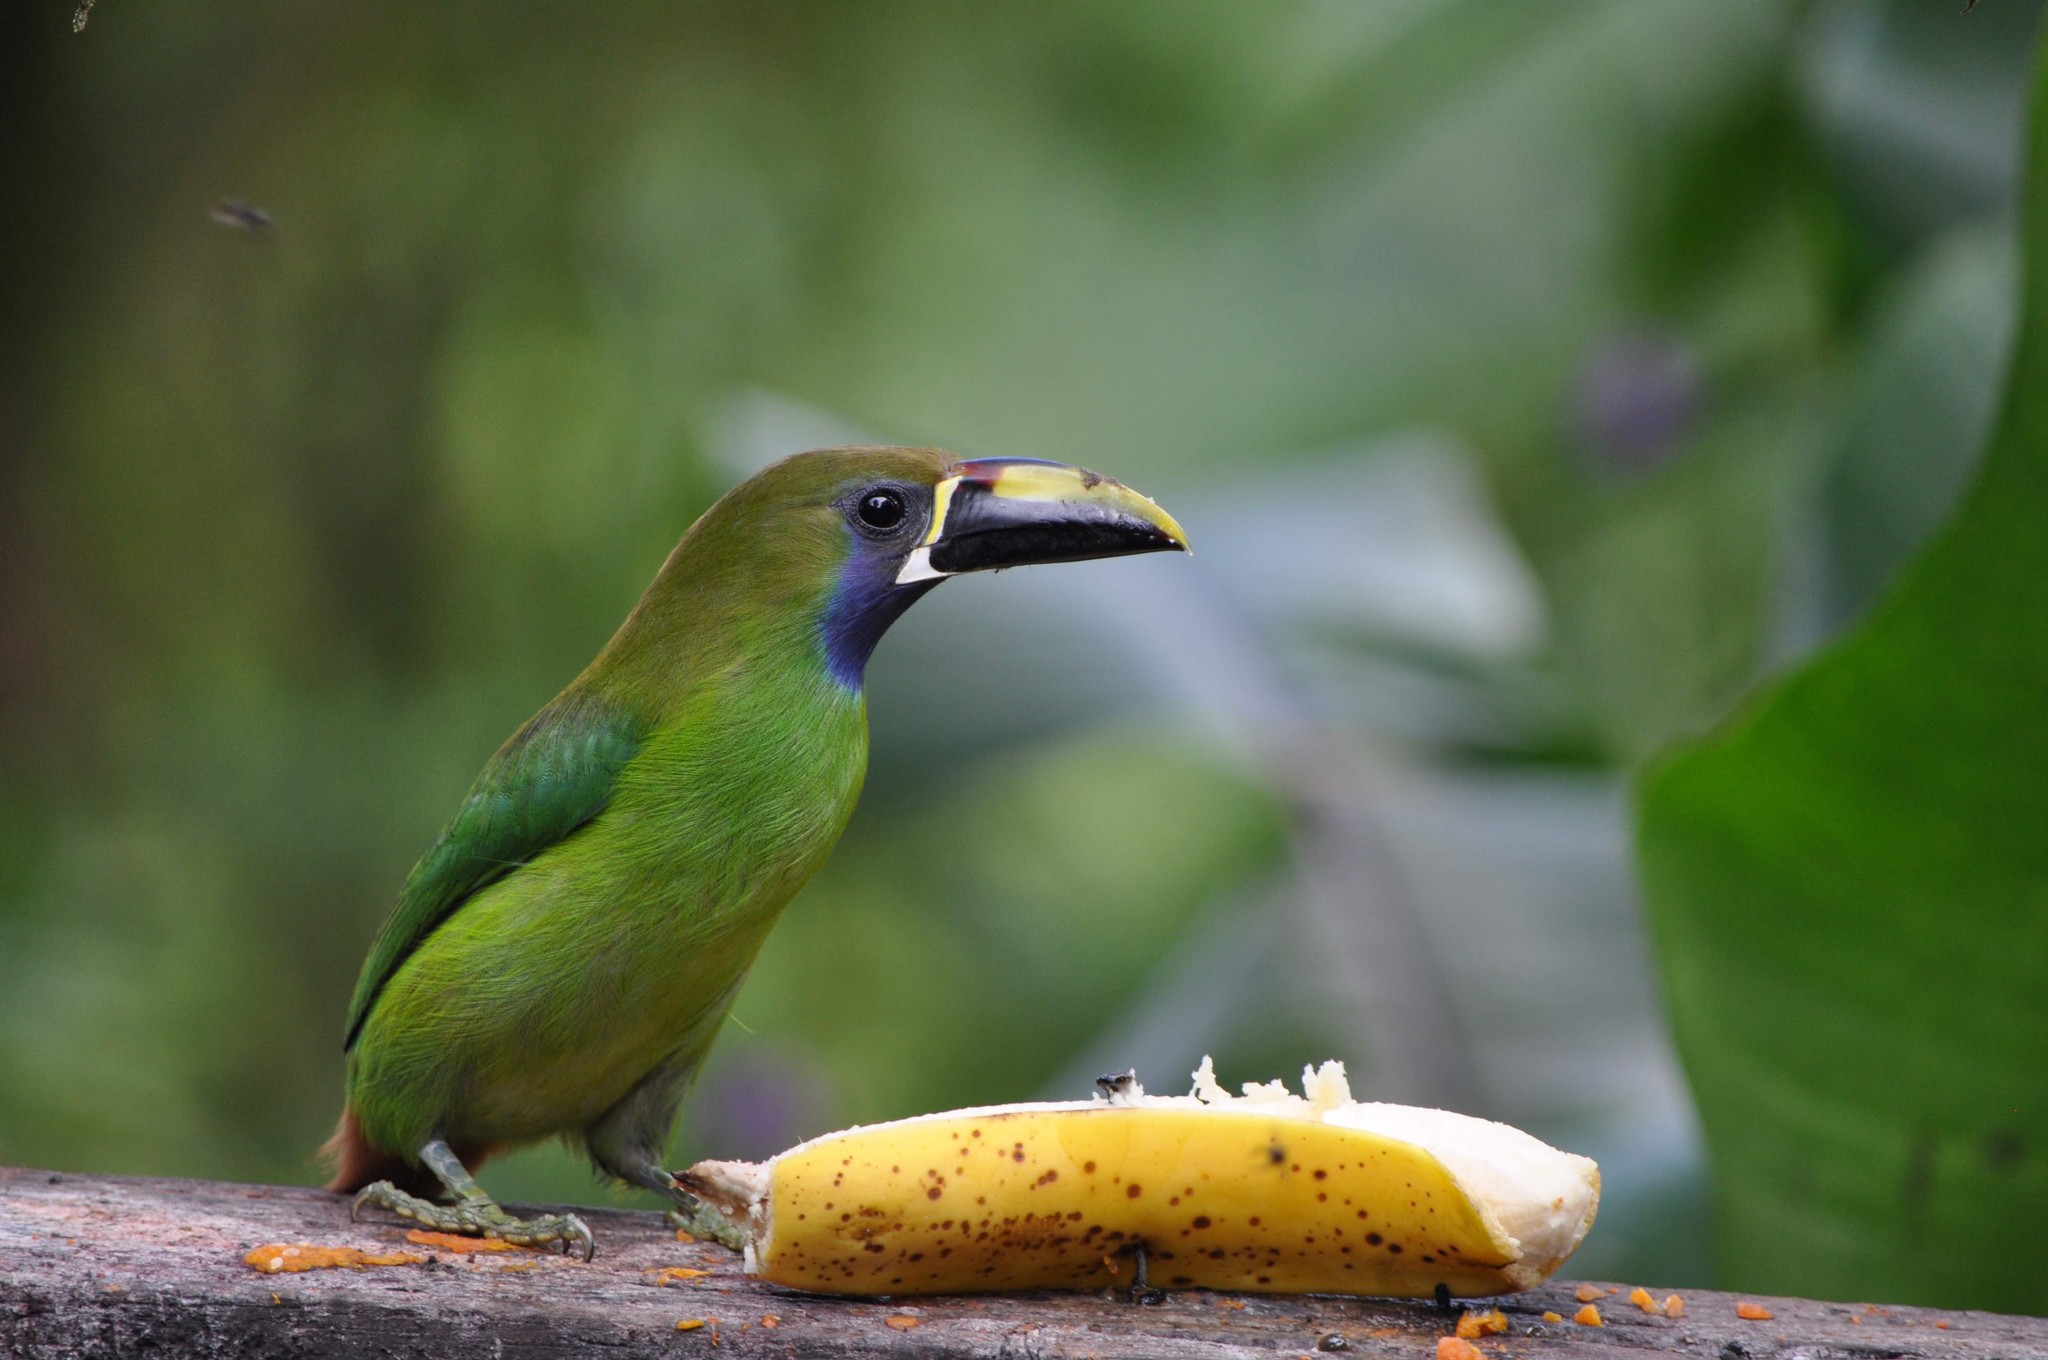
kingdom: Animalia
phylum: Chordata
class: Aves
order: Piciformes
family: Ramphastidae
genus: Aulacorhynchus
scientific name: Aulacorhynchus prasinus
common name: Emerald toucanet
